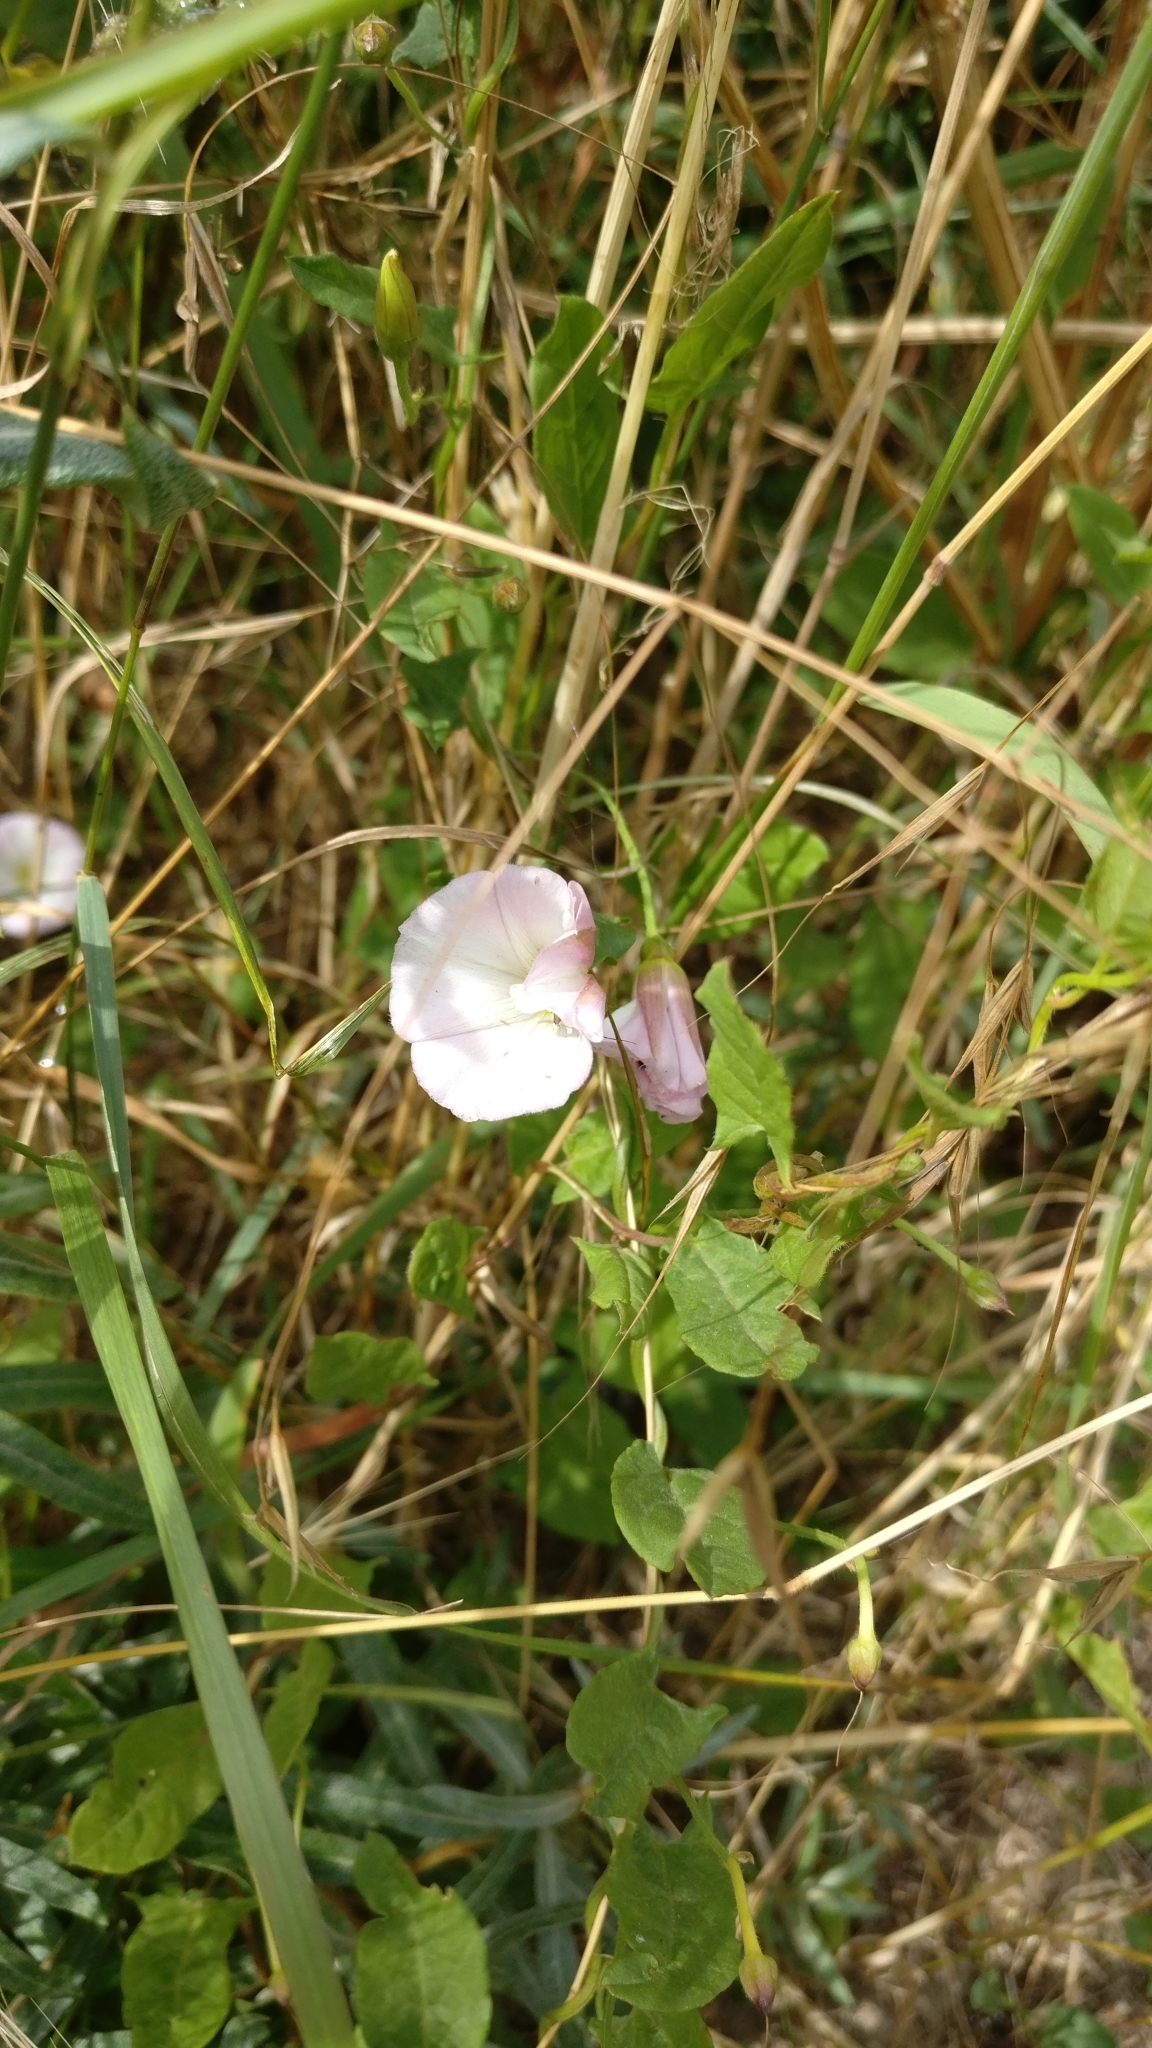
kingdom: Plantae
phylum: Tracheophyta
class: Magnoliopsida
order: Solanales
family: Convolvulaceae
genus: Convolvulus
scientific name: Convolvulus arvensis
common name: Field bindweed
